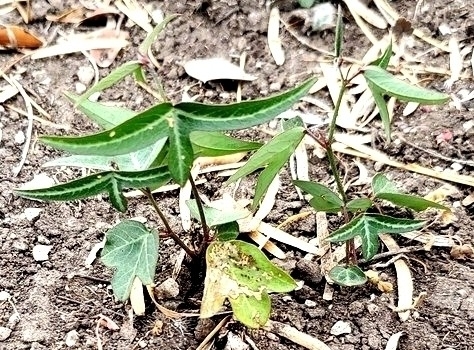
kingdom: Plantae
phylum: Tracheophyta
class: Magnoliopsida
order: Malpighiales
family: Passifloraceae
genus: Passiflora
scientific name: Passiflora tenuiloba
